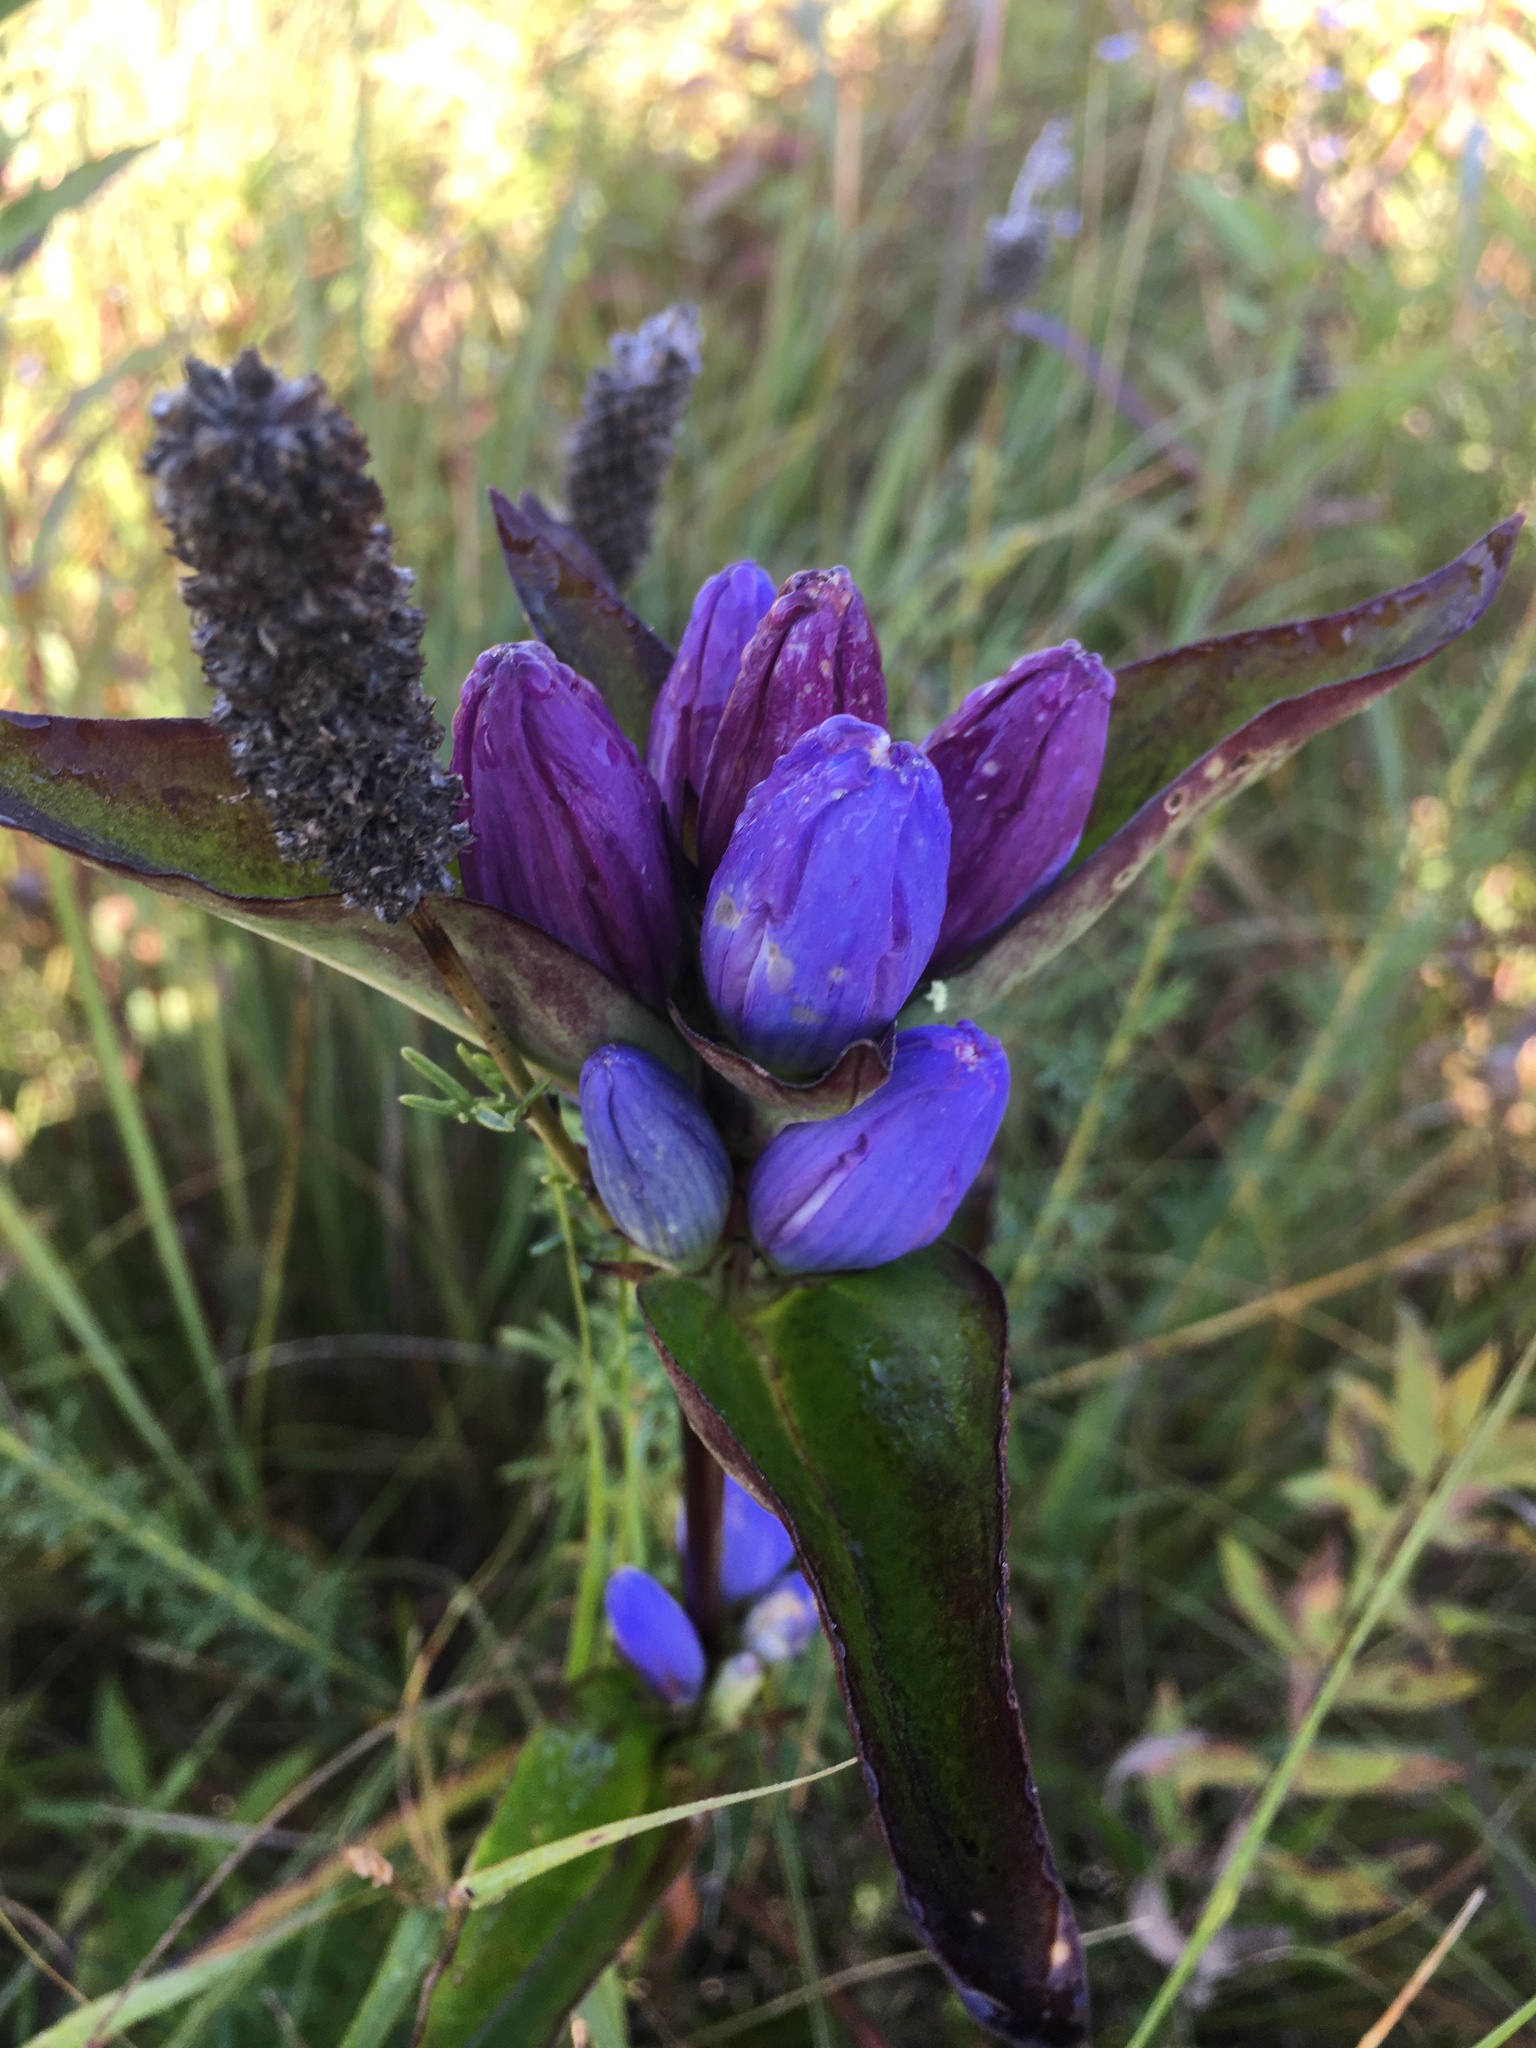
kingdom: Plantae
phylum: Tracheophyta
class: Magnoliopsida
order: Gentianales
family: Gentianaceae
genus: Gentiana
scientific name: Gentiana andrewsii
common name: Bottle gentian
